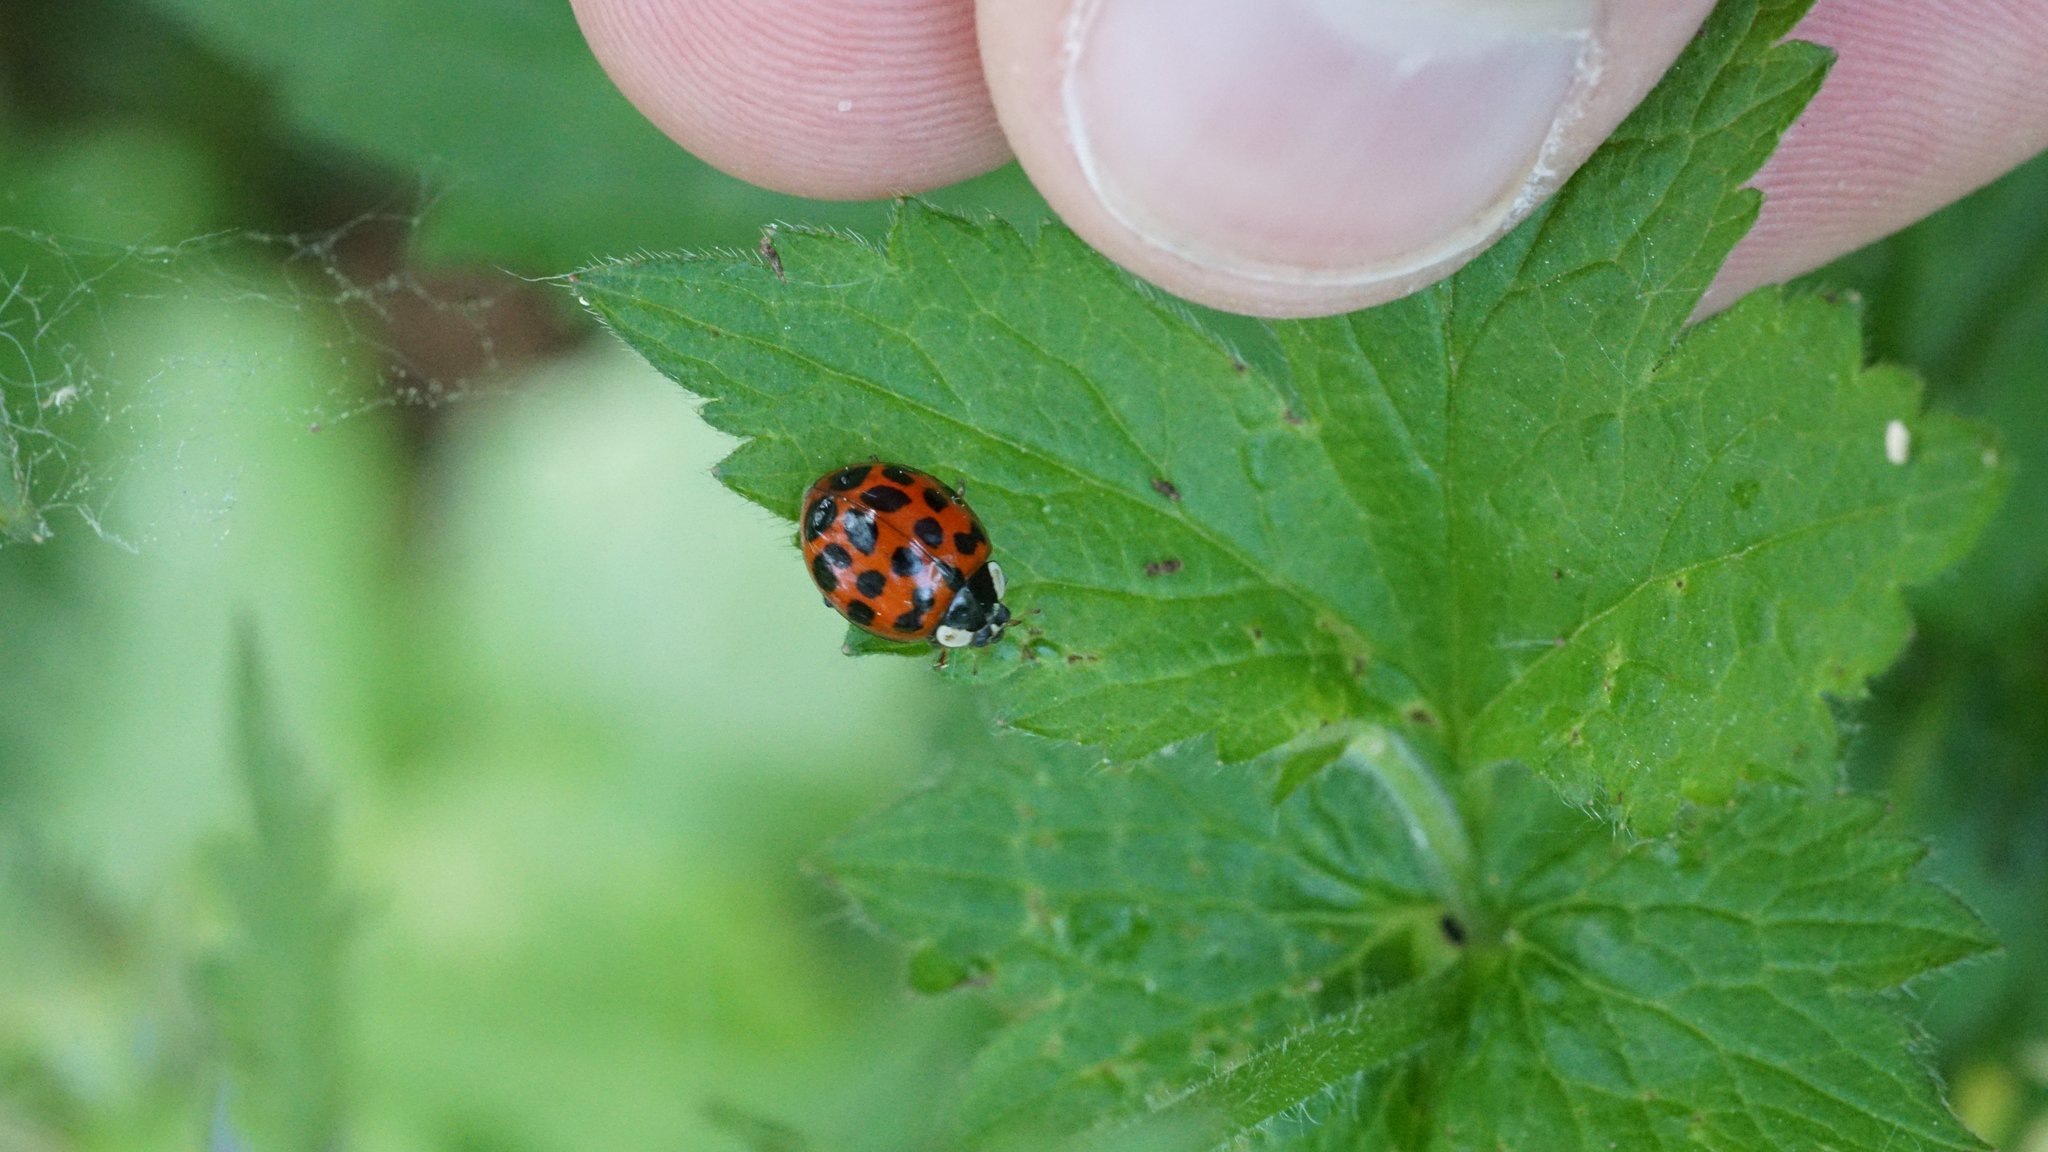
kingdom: Animalia
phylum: Arthropoda
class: Insecta
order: Coleoptera
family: Coccinellidae
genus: Harmonia
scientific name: Harmonia axyridis
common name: Harlequin ladybird
